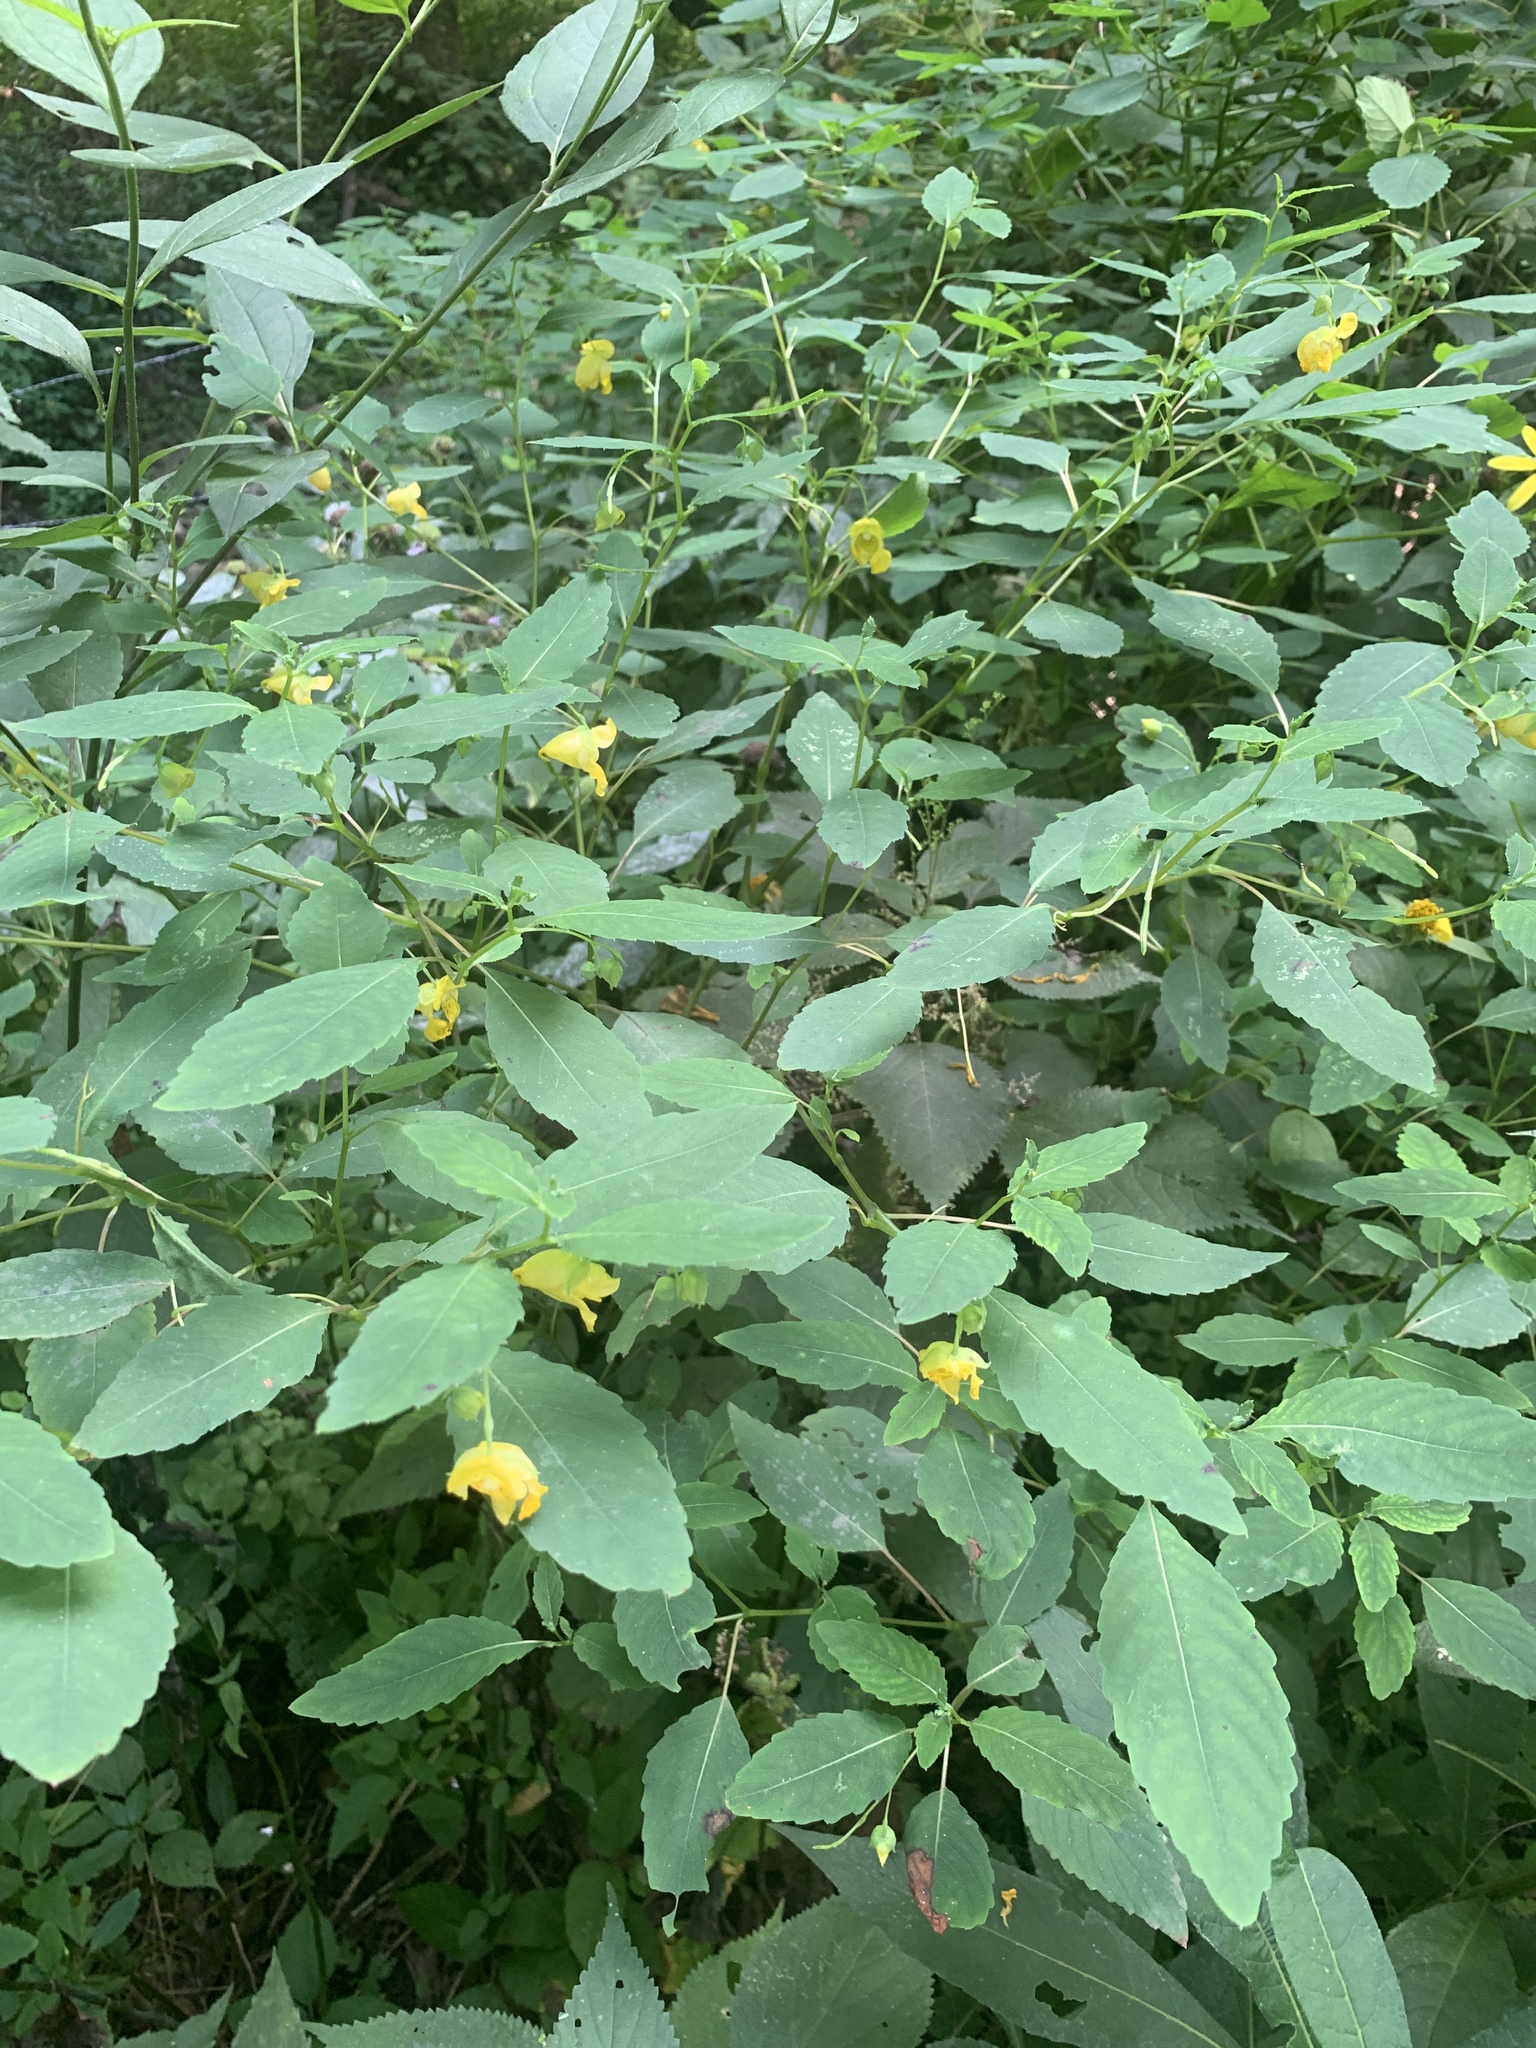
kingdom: Plantae
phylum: Tracheophyta
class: Magnoliopsida
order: Ericales
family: Balsaminaceae
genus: Impatiens
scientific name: Impatiens pallida
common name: Pale snapweed
